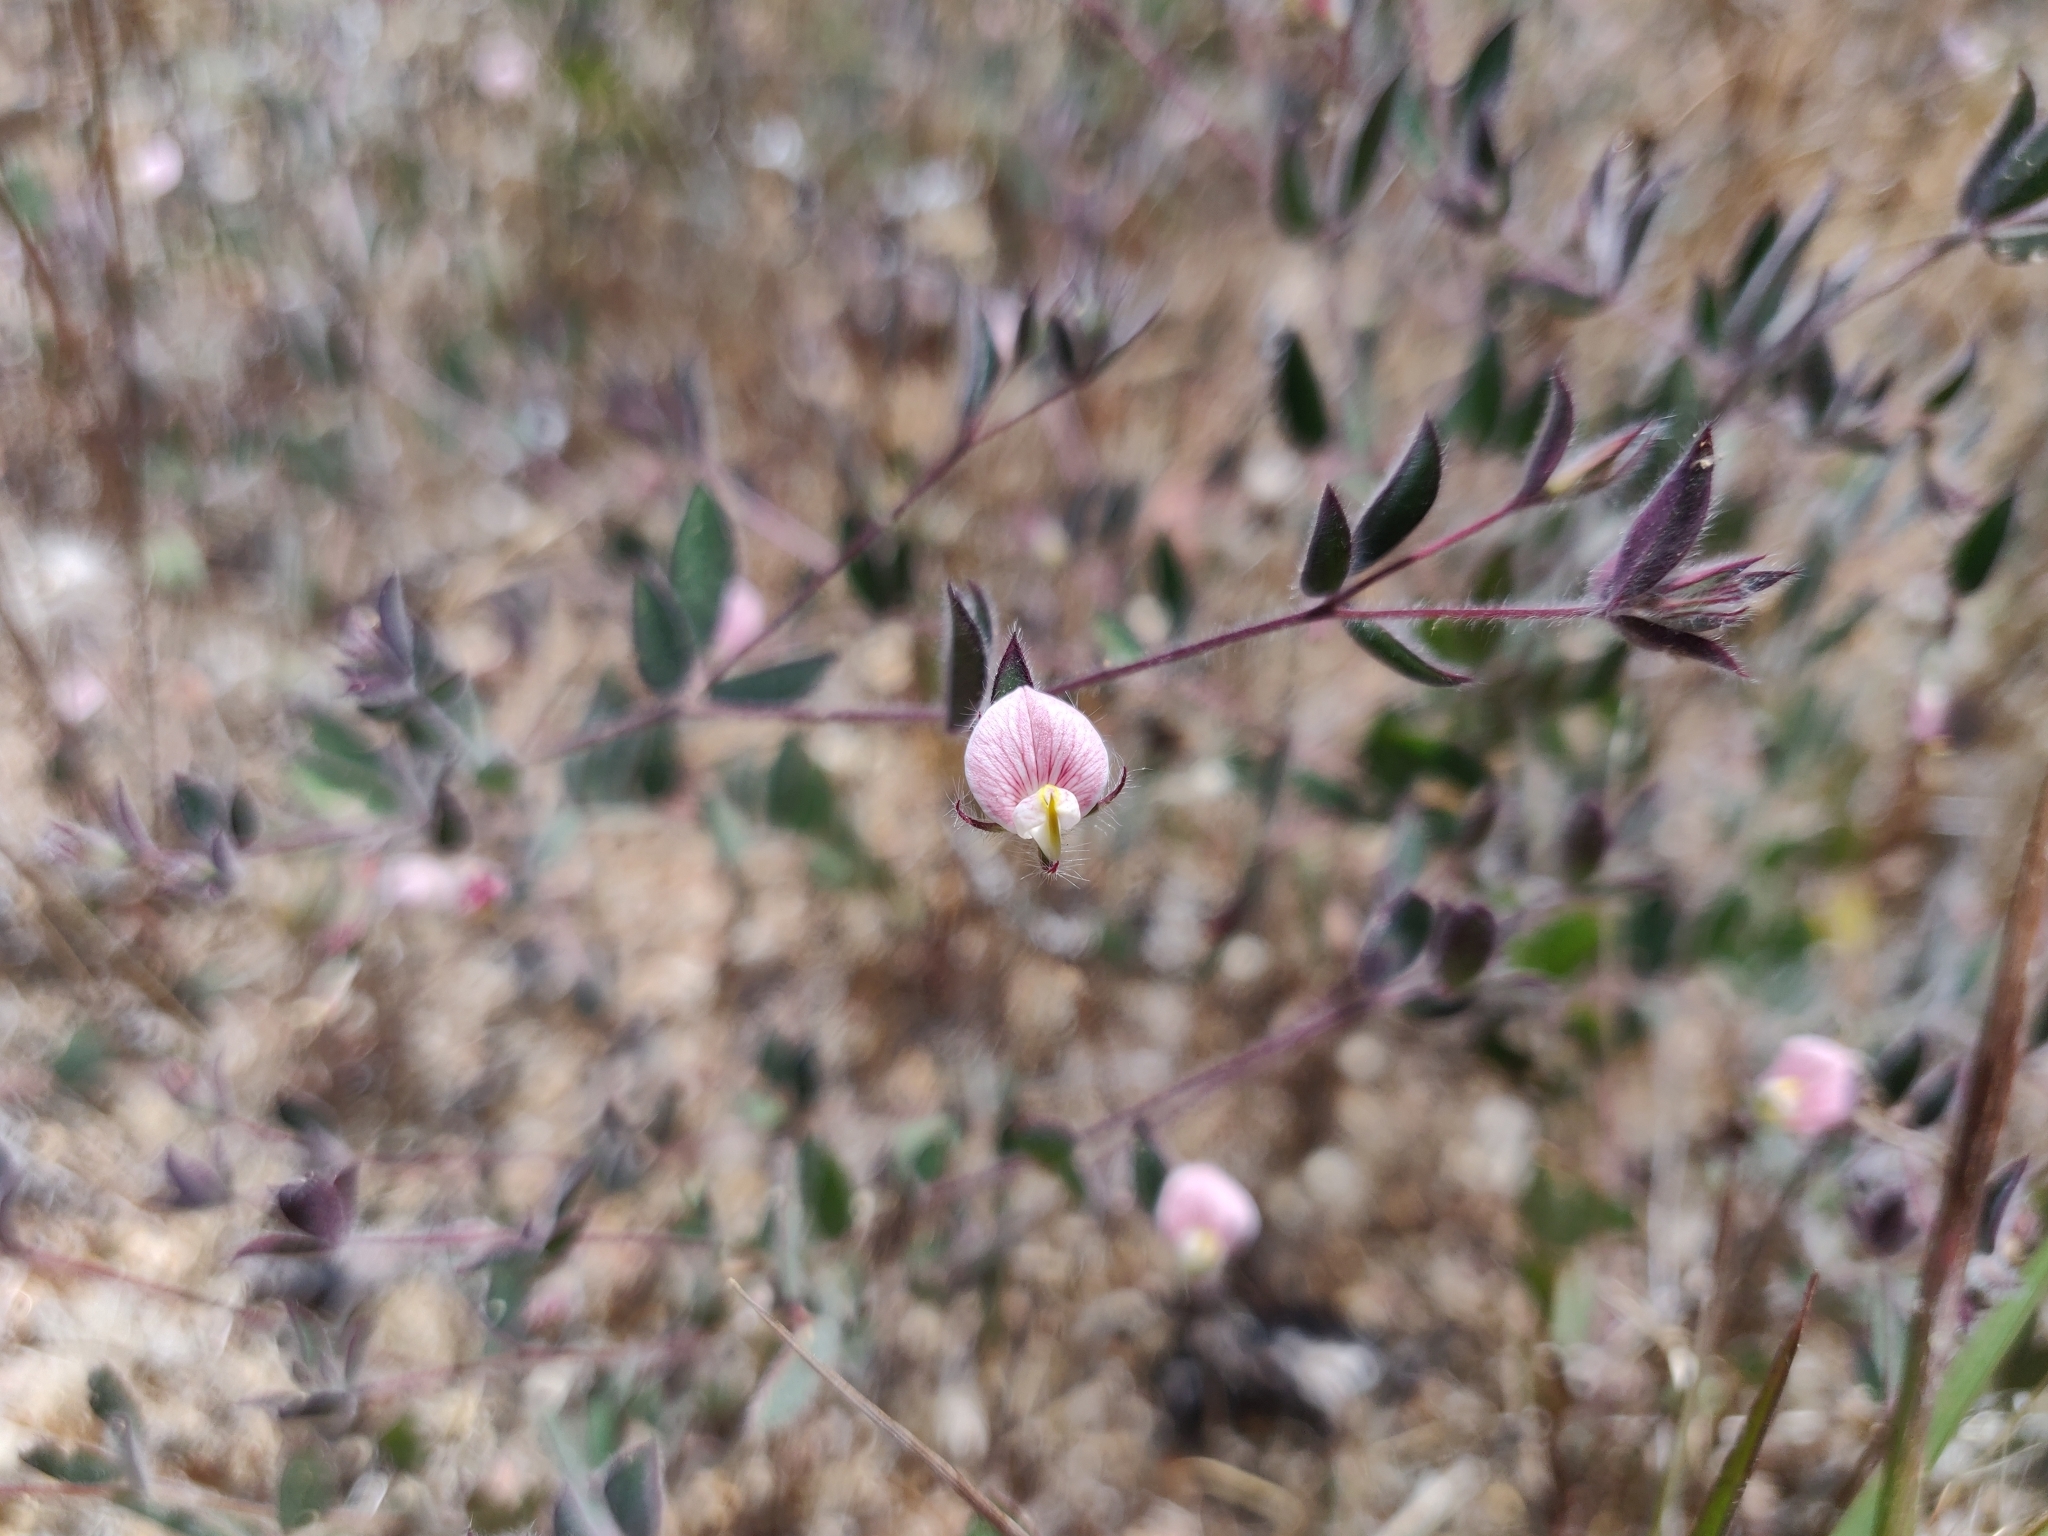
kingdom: Plantae
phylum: Tracheophyta
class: Magnoliopsida
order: Fabales
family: Fabaceae
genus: Acmispon
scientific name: Acmispon americanus
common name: American bird's-foot trefoil
